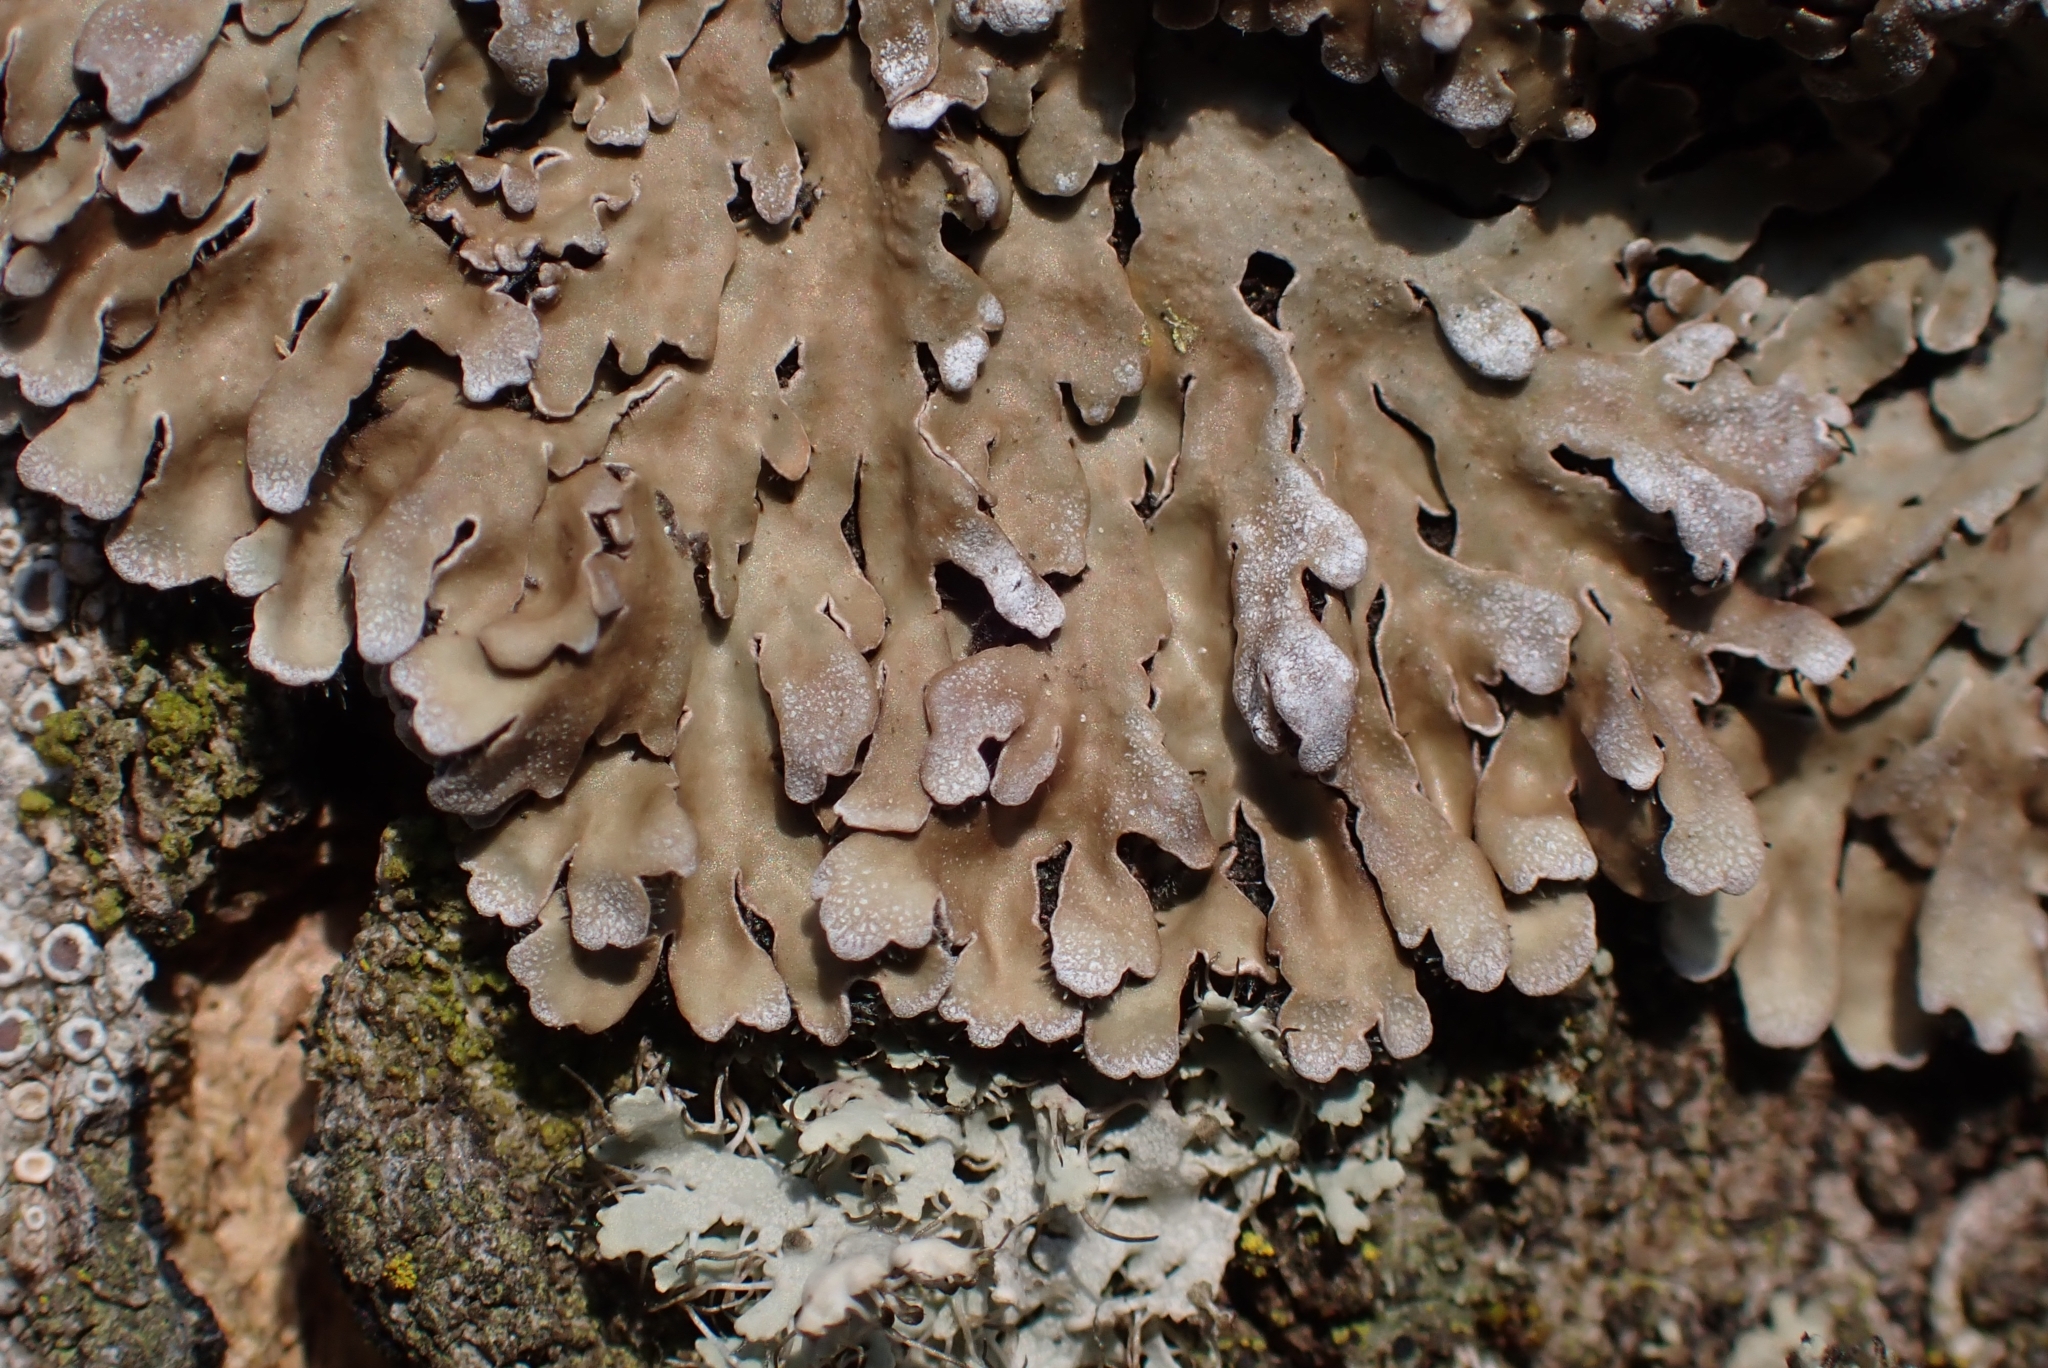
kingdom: Fungi
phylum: Ascomycota
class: Lecanoromycetes
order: Caliciales
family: Physciaceae
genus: Physconia
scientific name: Physconia distorta
